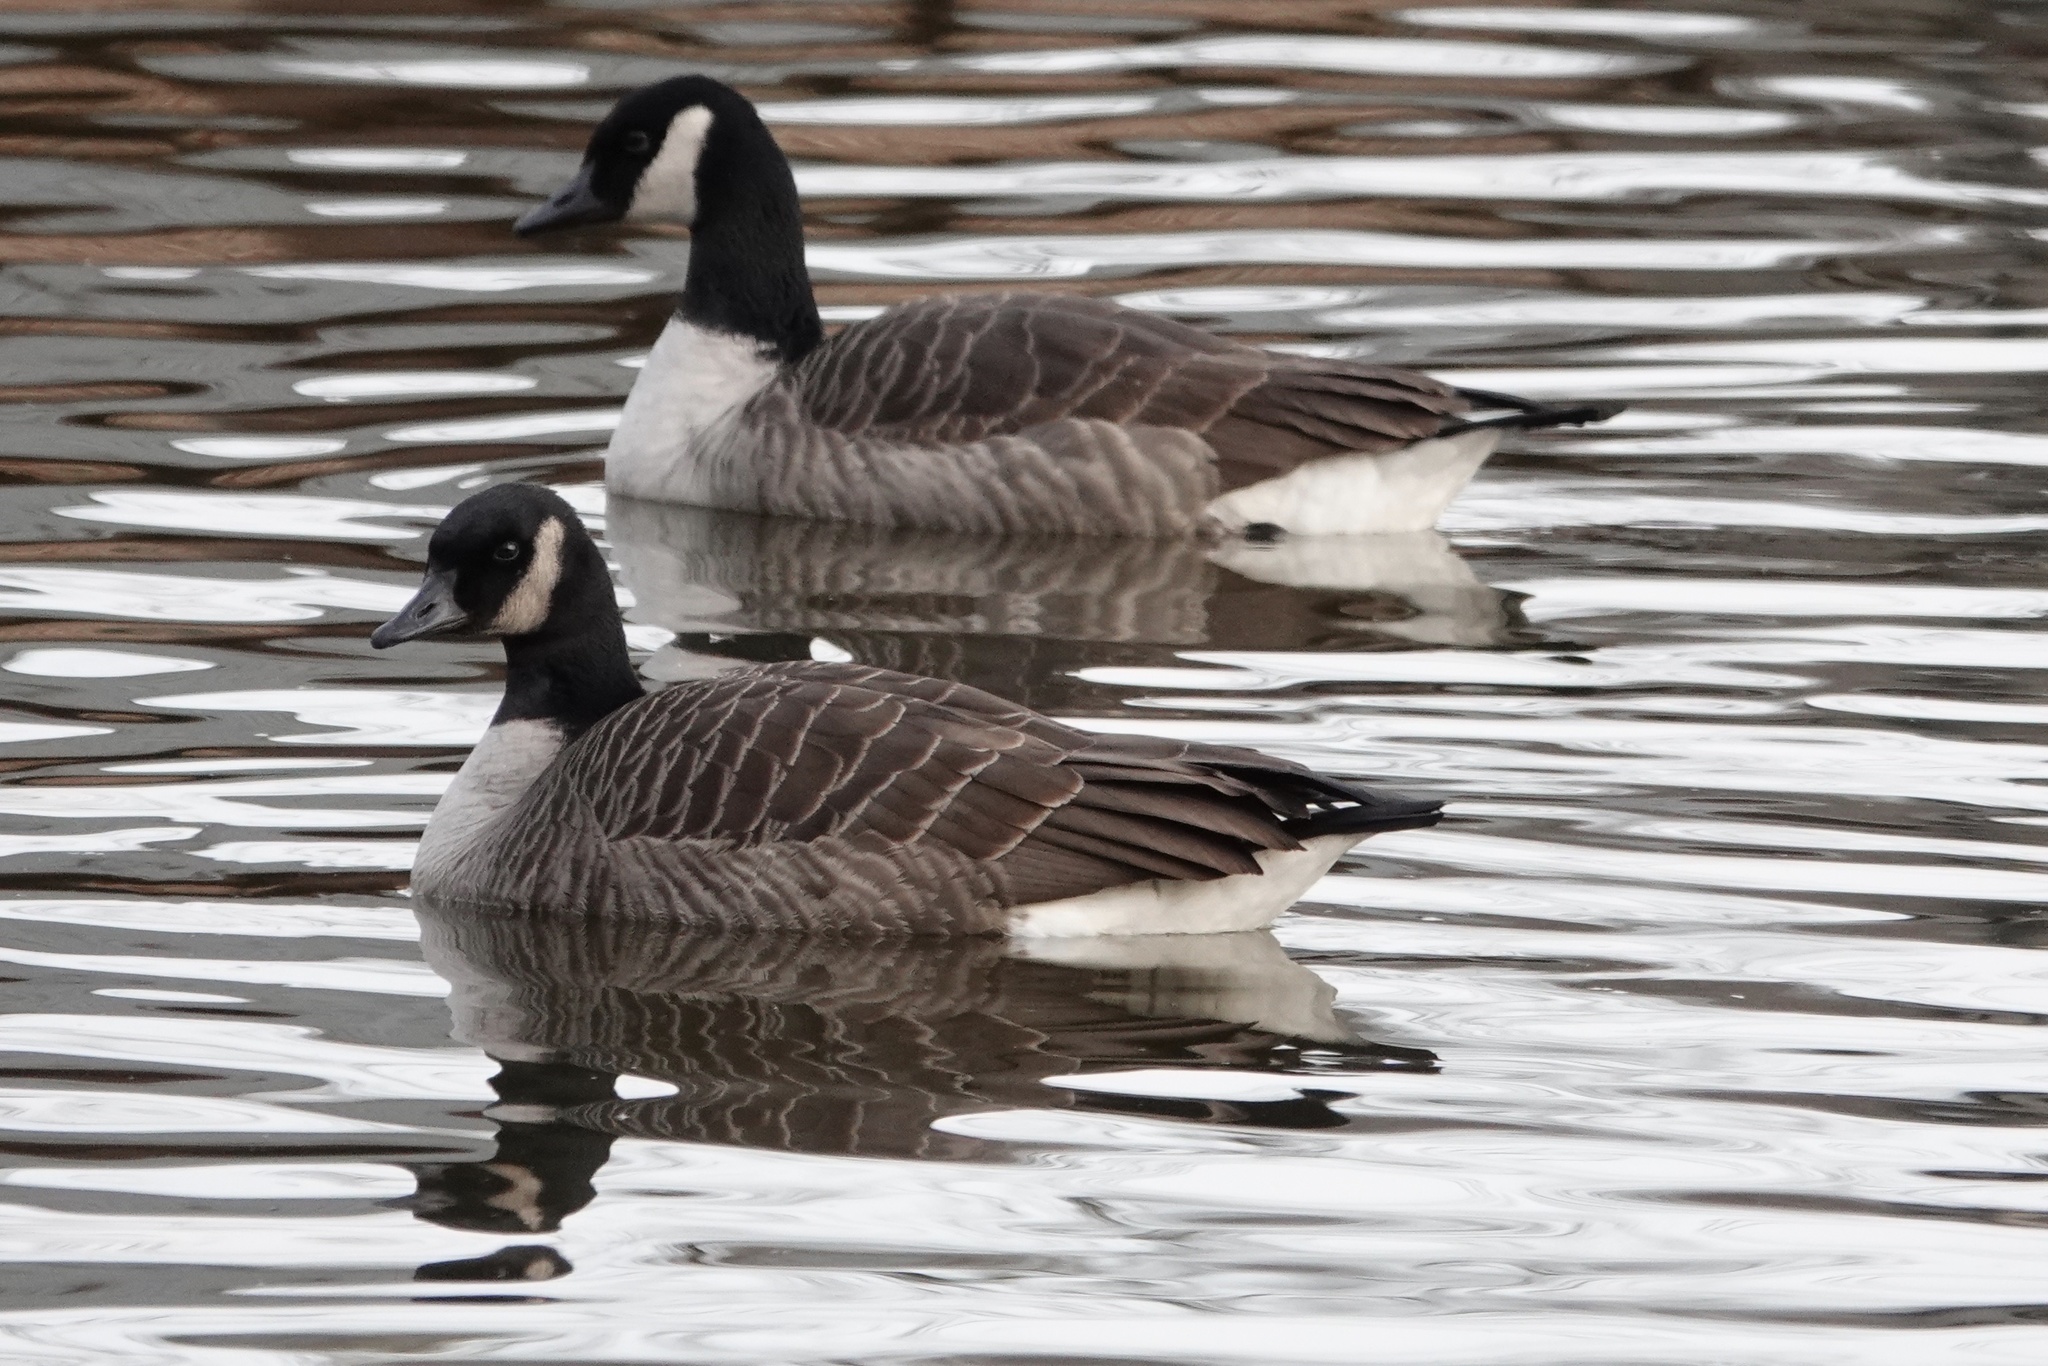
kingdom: Animalia
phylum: Chordata
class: Aves
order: Anseriformes
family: Anatidae
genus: Branta
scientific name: Branta canadensis
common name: Canada goose
